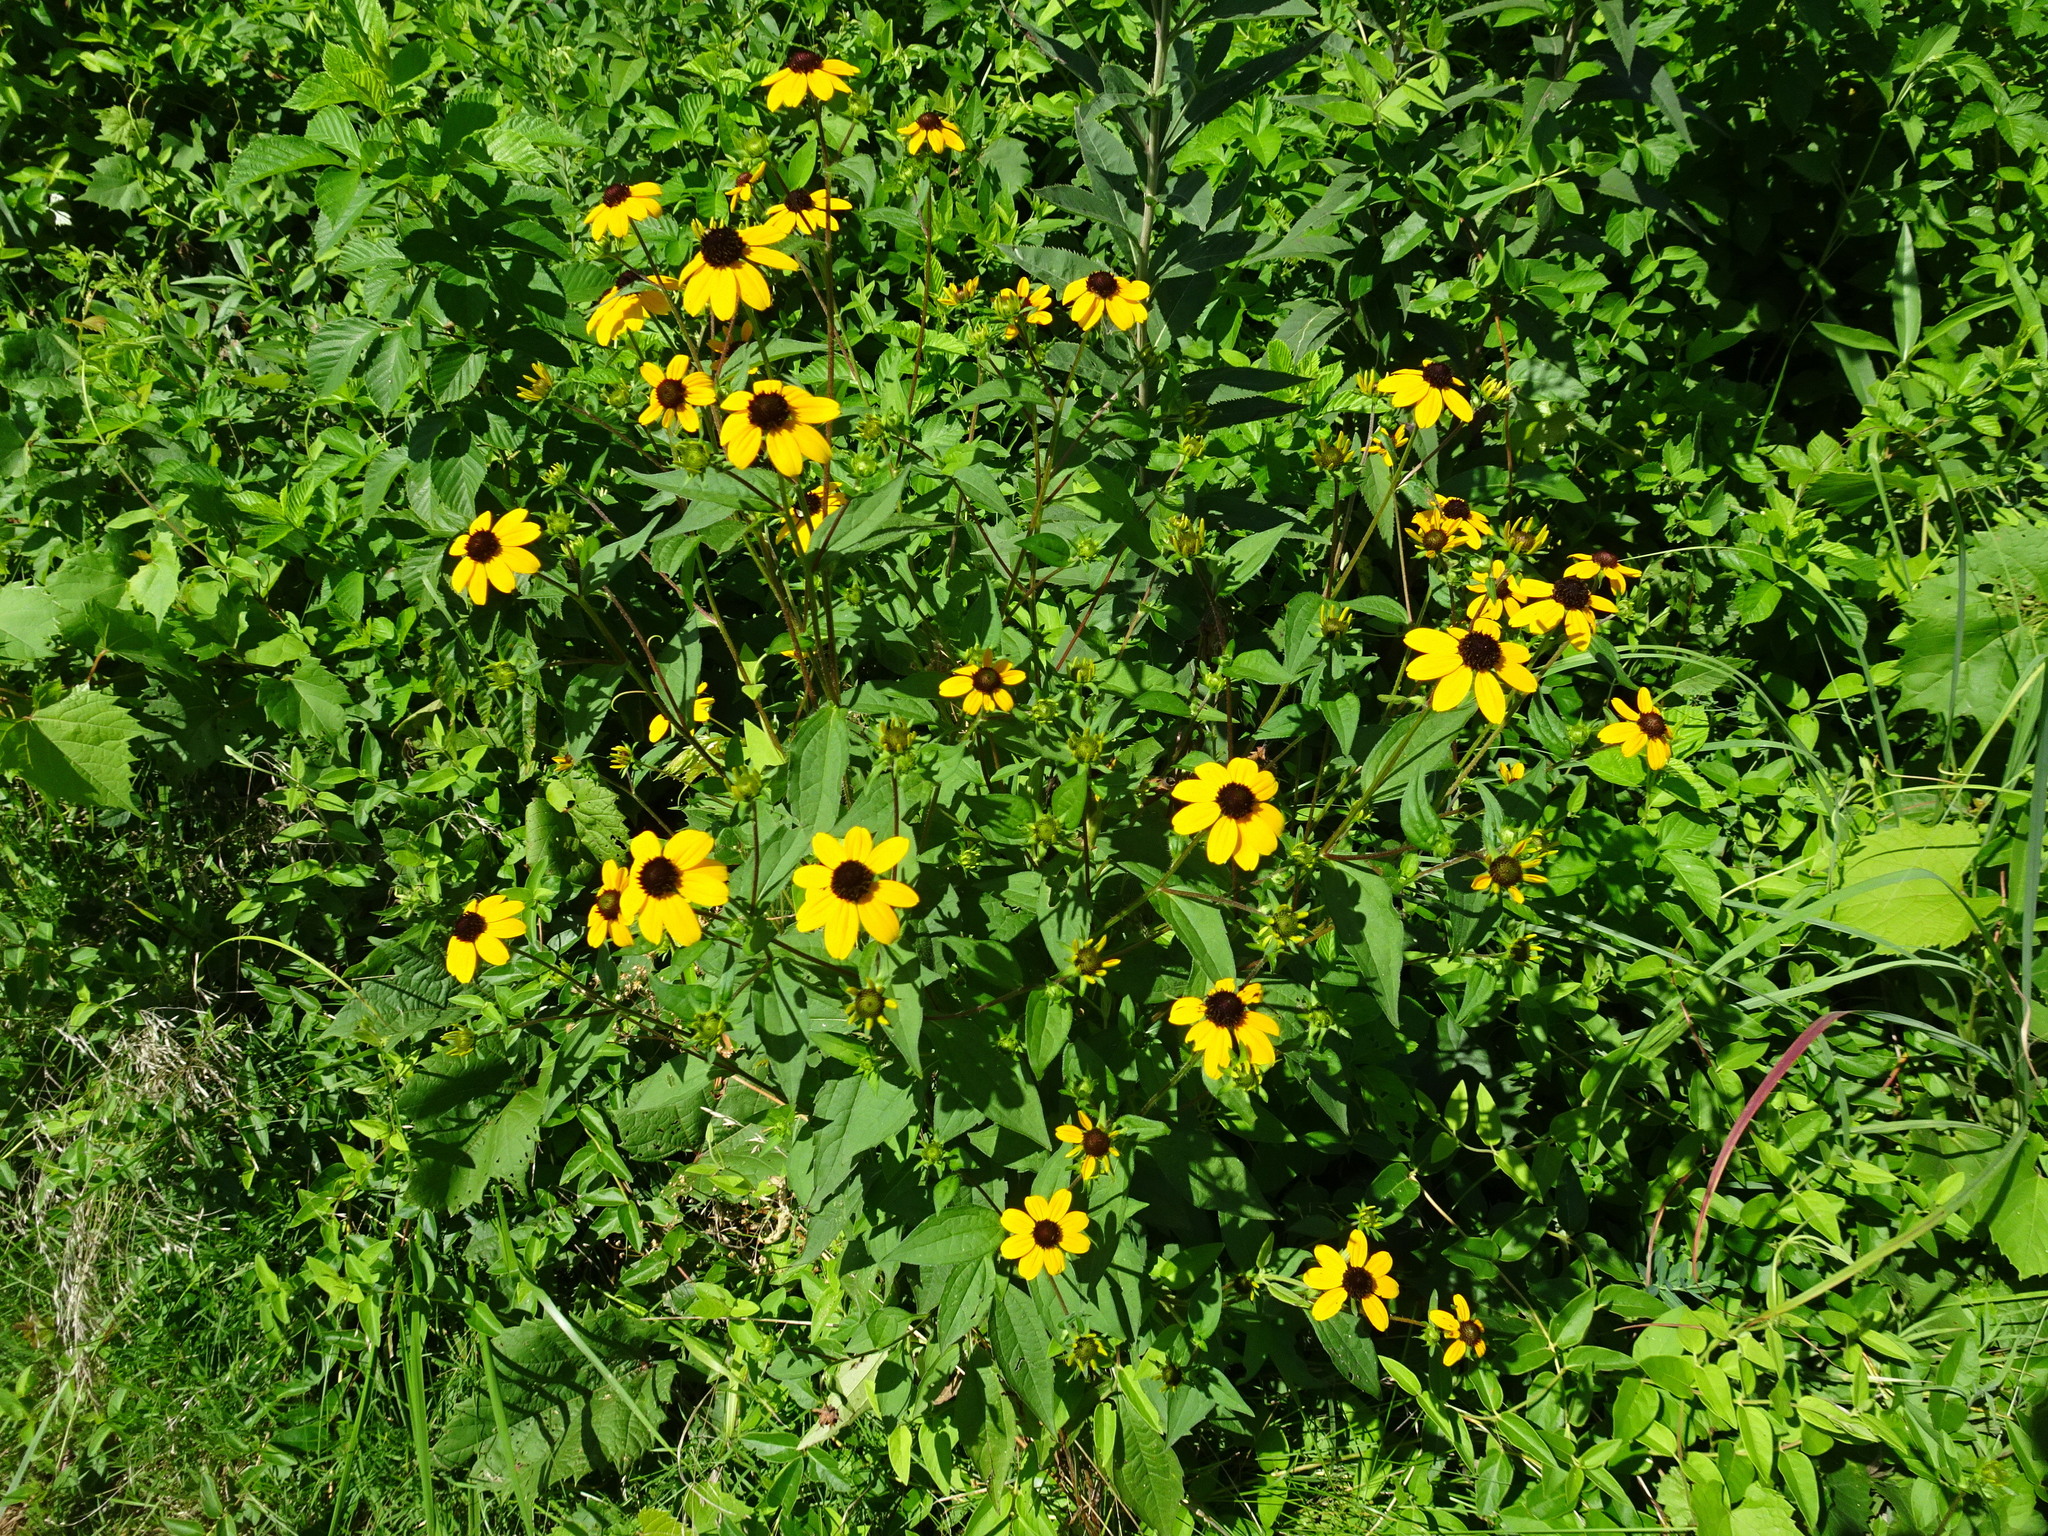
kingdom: Plantae
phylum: Tracheophyta
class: Magnoliopsida
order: Asterales
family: Asteraceae
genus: Rudbeckia
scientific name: Rudbeckia triloba
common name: Thin-leaved coneflower
